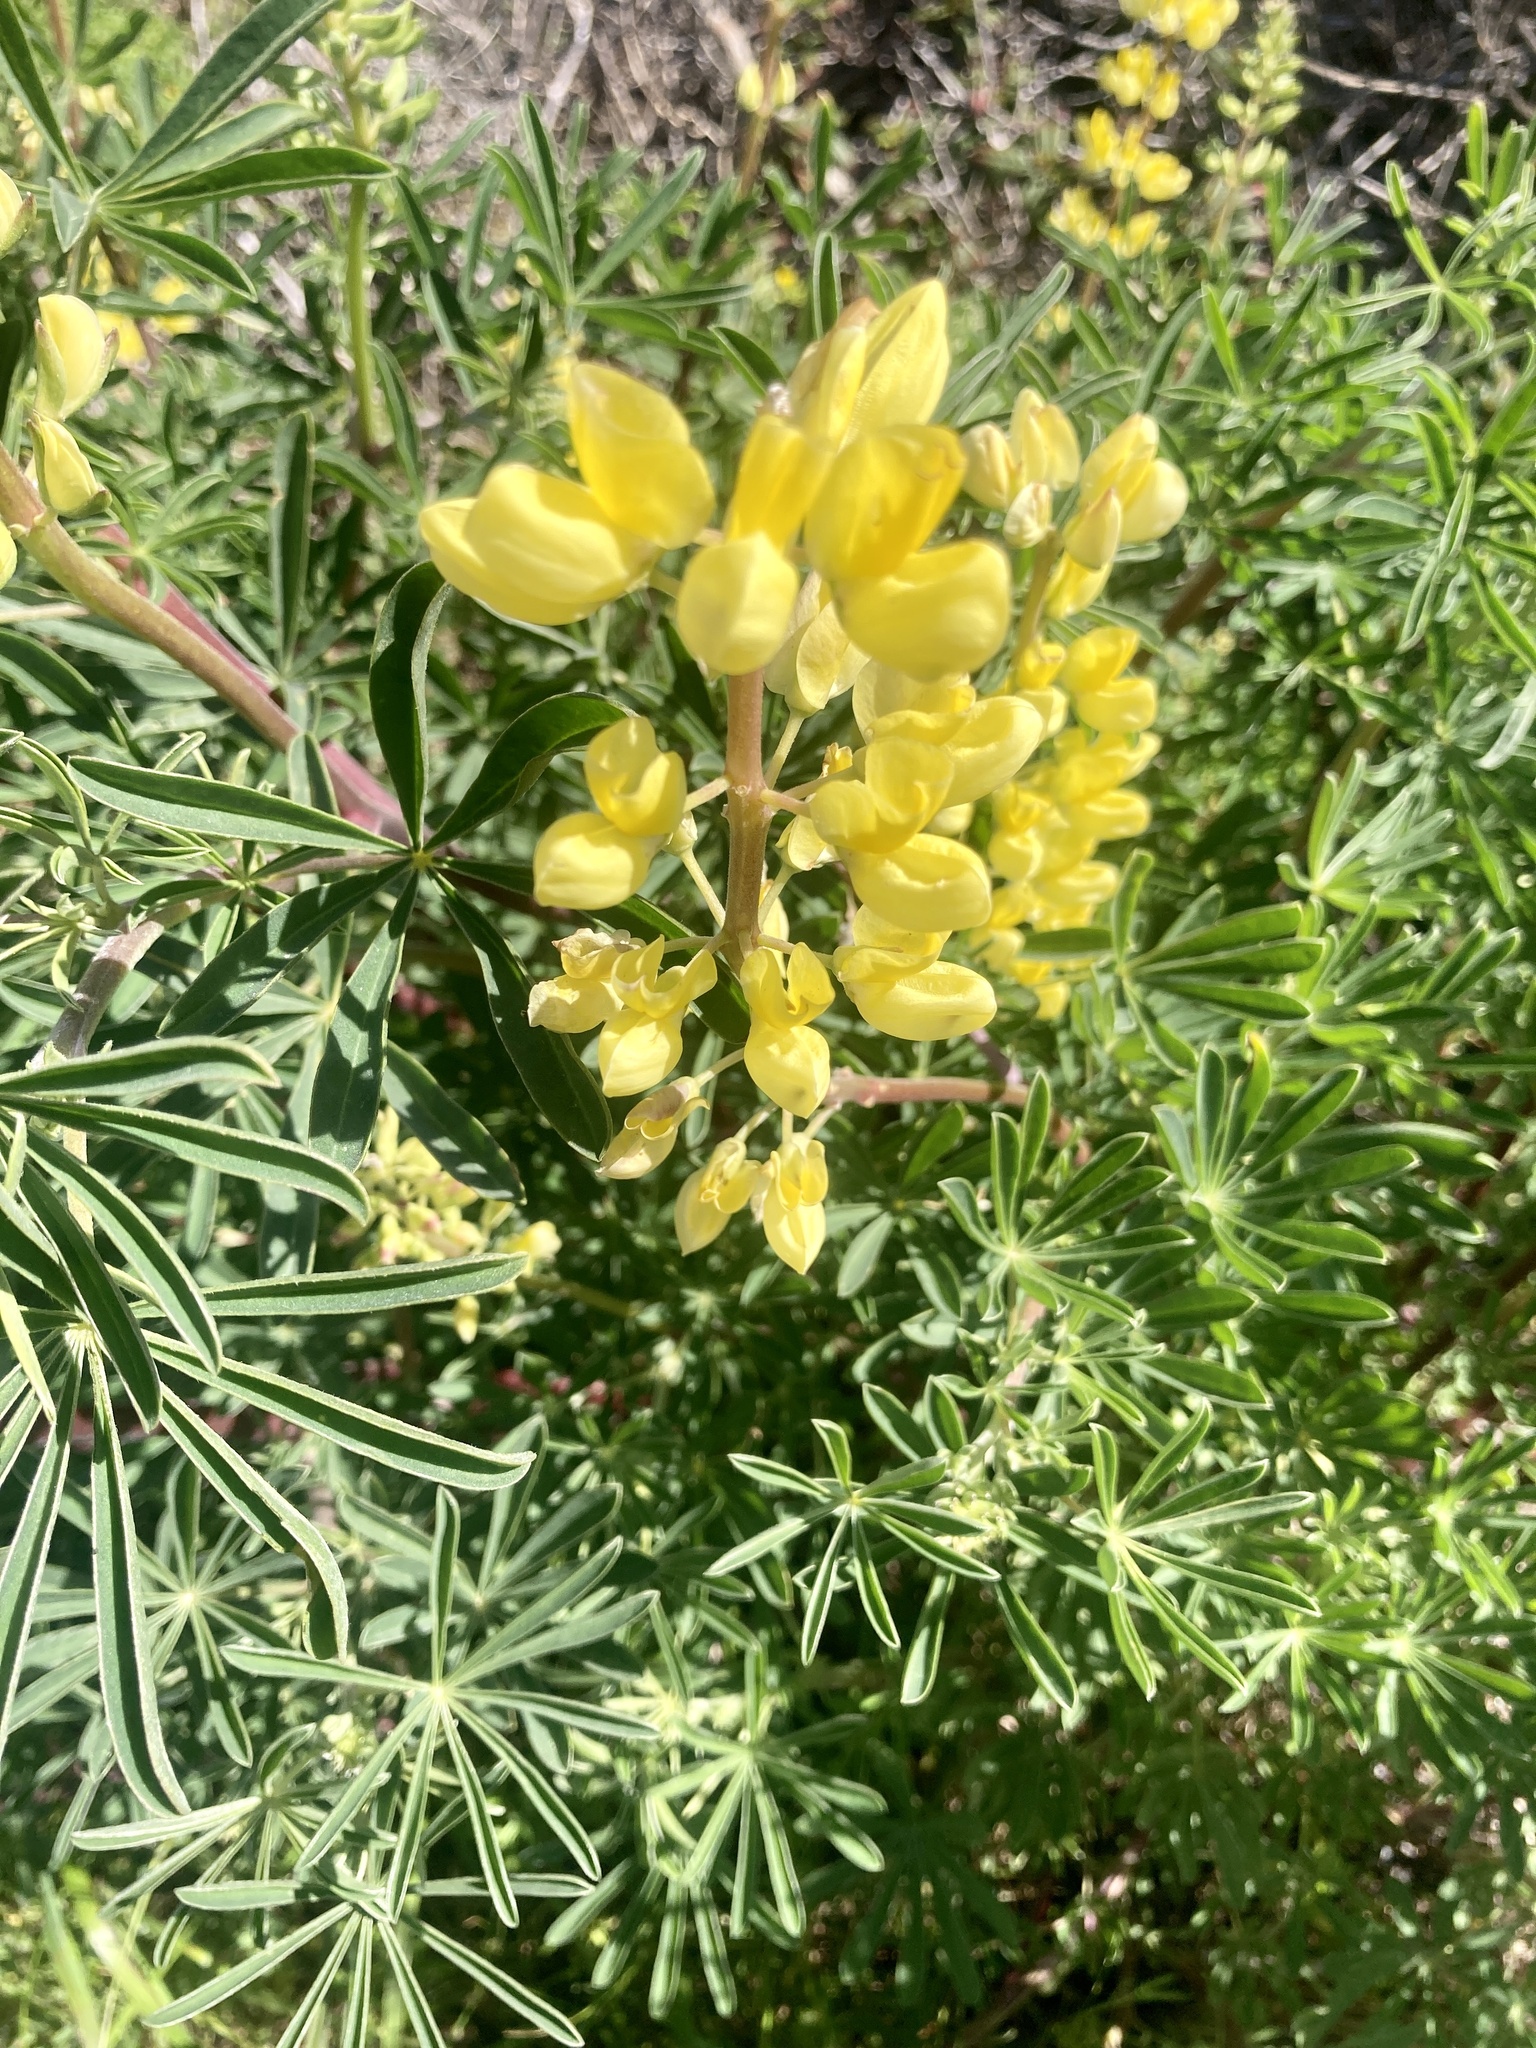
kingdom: Plantae
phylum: Tracheophyta
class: Magnoliopsida
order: Fabales
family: Fabaceae
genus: Lupinus
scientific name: Lupinus arboreus
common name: Yellow bush lupine
